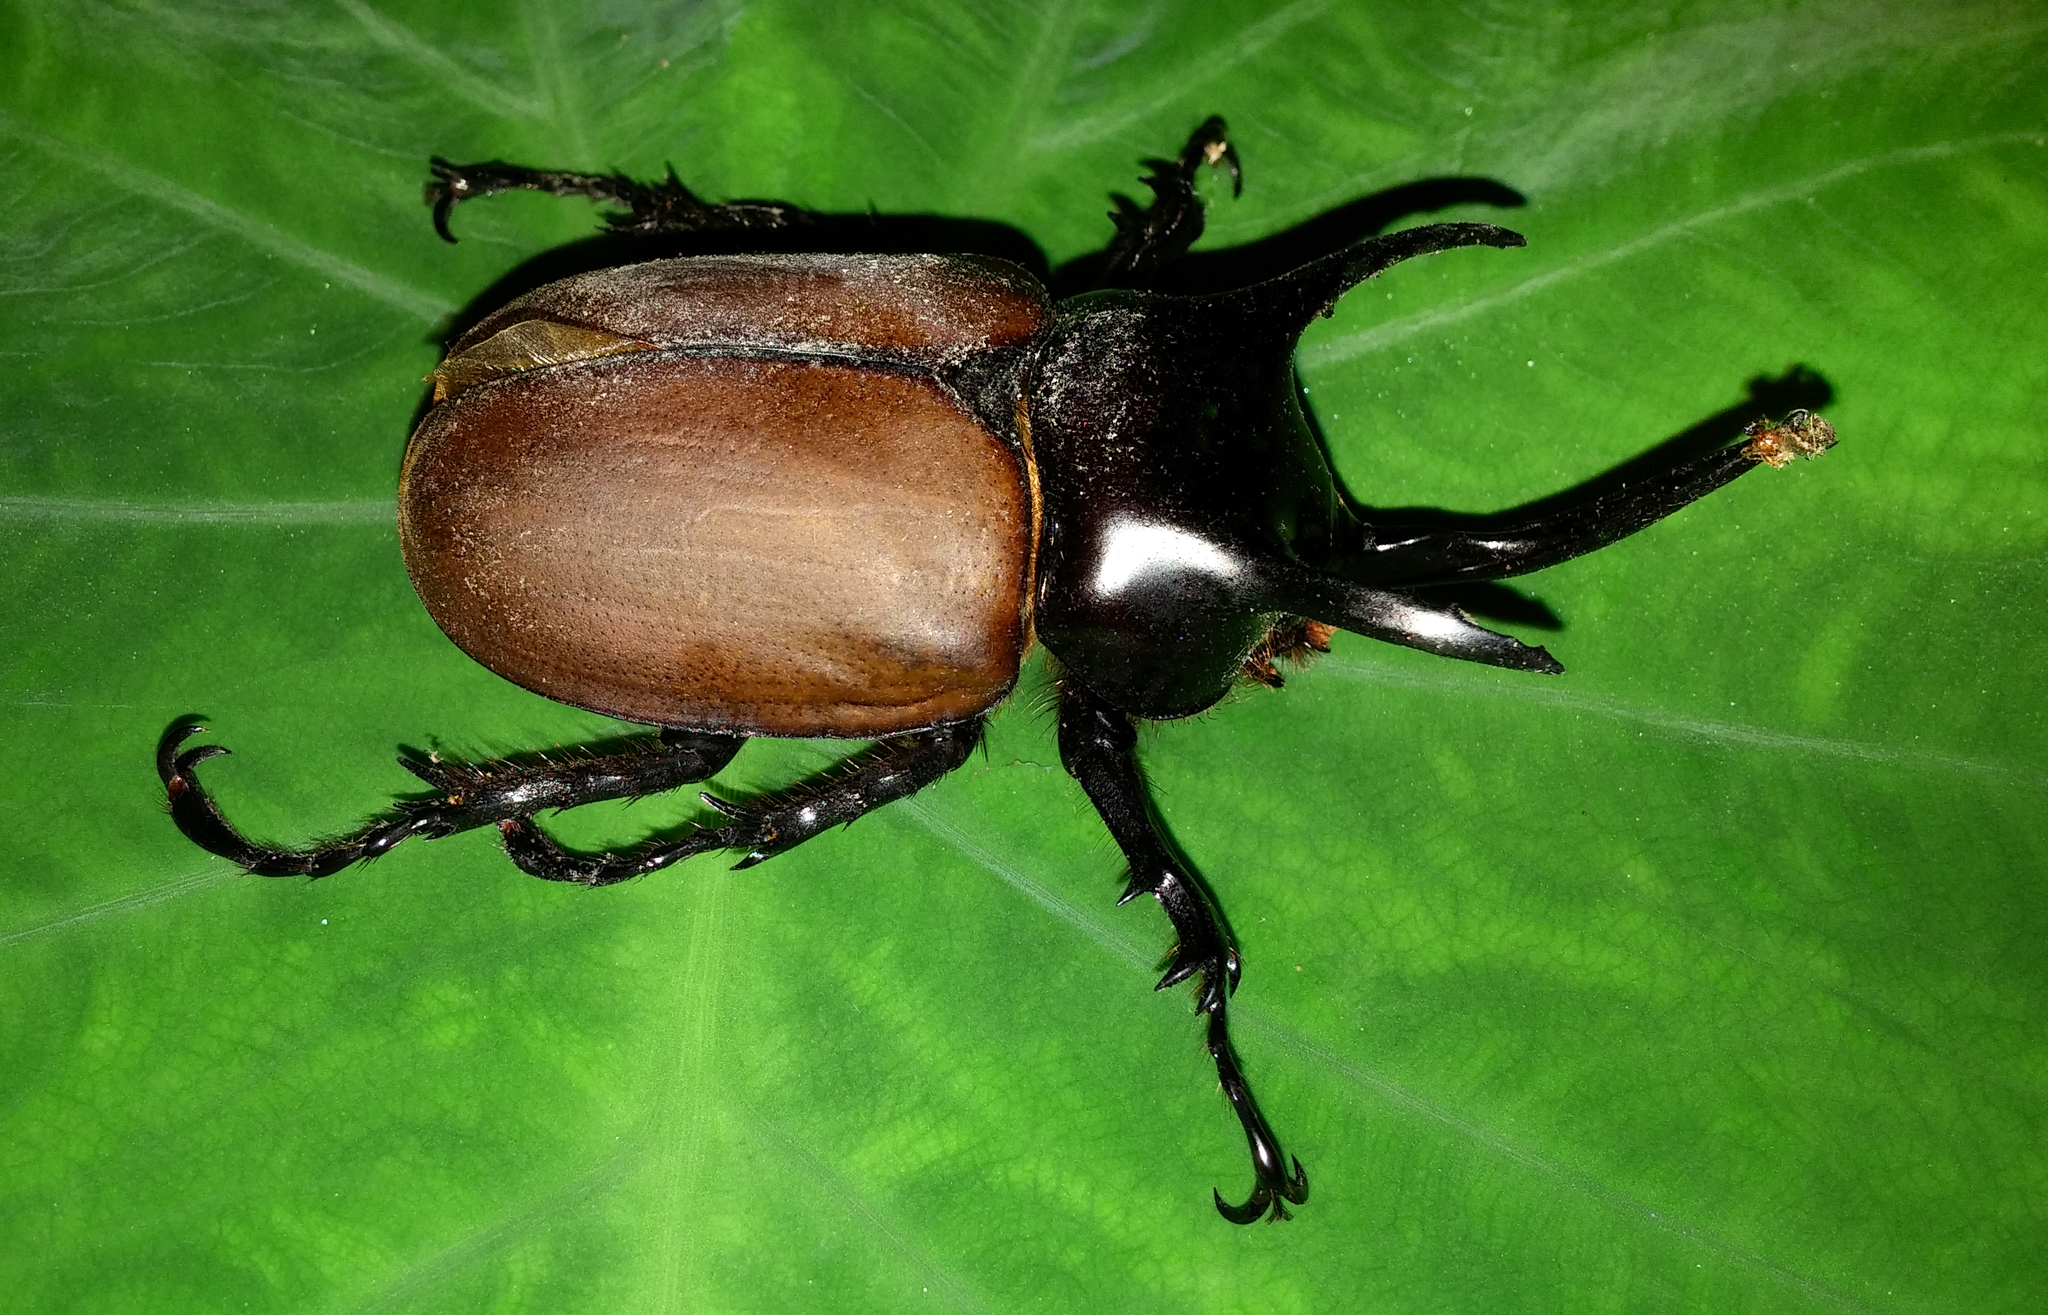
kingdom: Animalia
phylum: Arthropoda
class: Insecta
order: Coleoptera
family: Scarabaeidae
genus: Debeckius
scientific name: Debeckius beccarii
